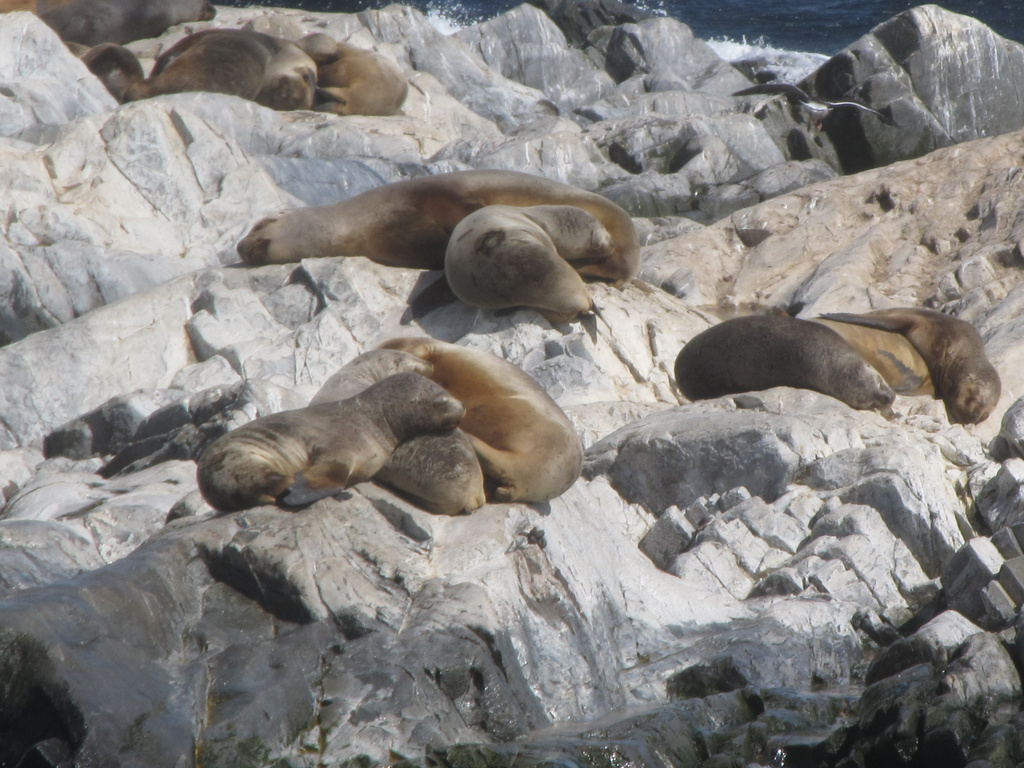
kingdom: Animalia
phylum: Chordata
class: Mammalia
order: Carnivora
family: Otariidae
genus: Otaria
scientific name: Otaria byronia
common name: South american sea lion
